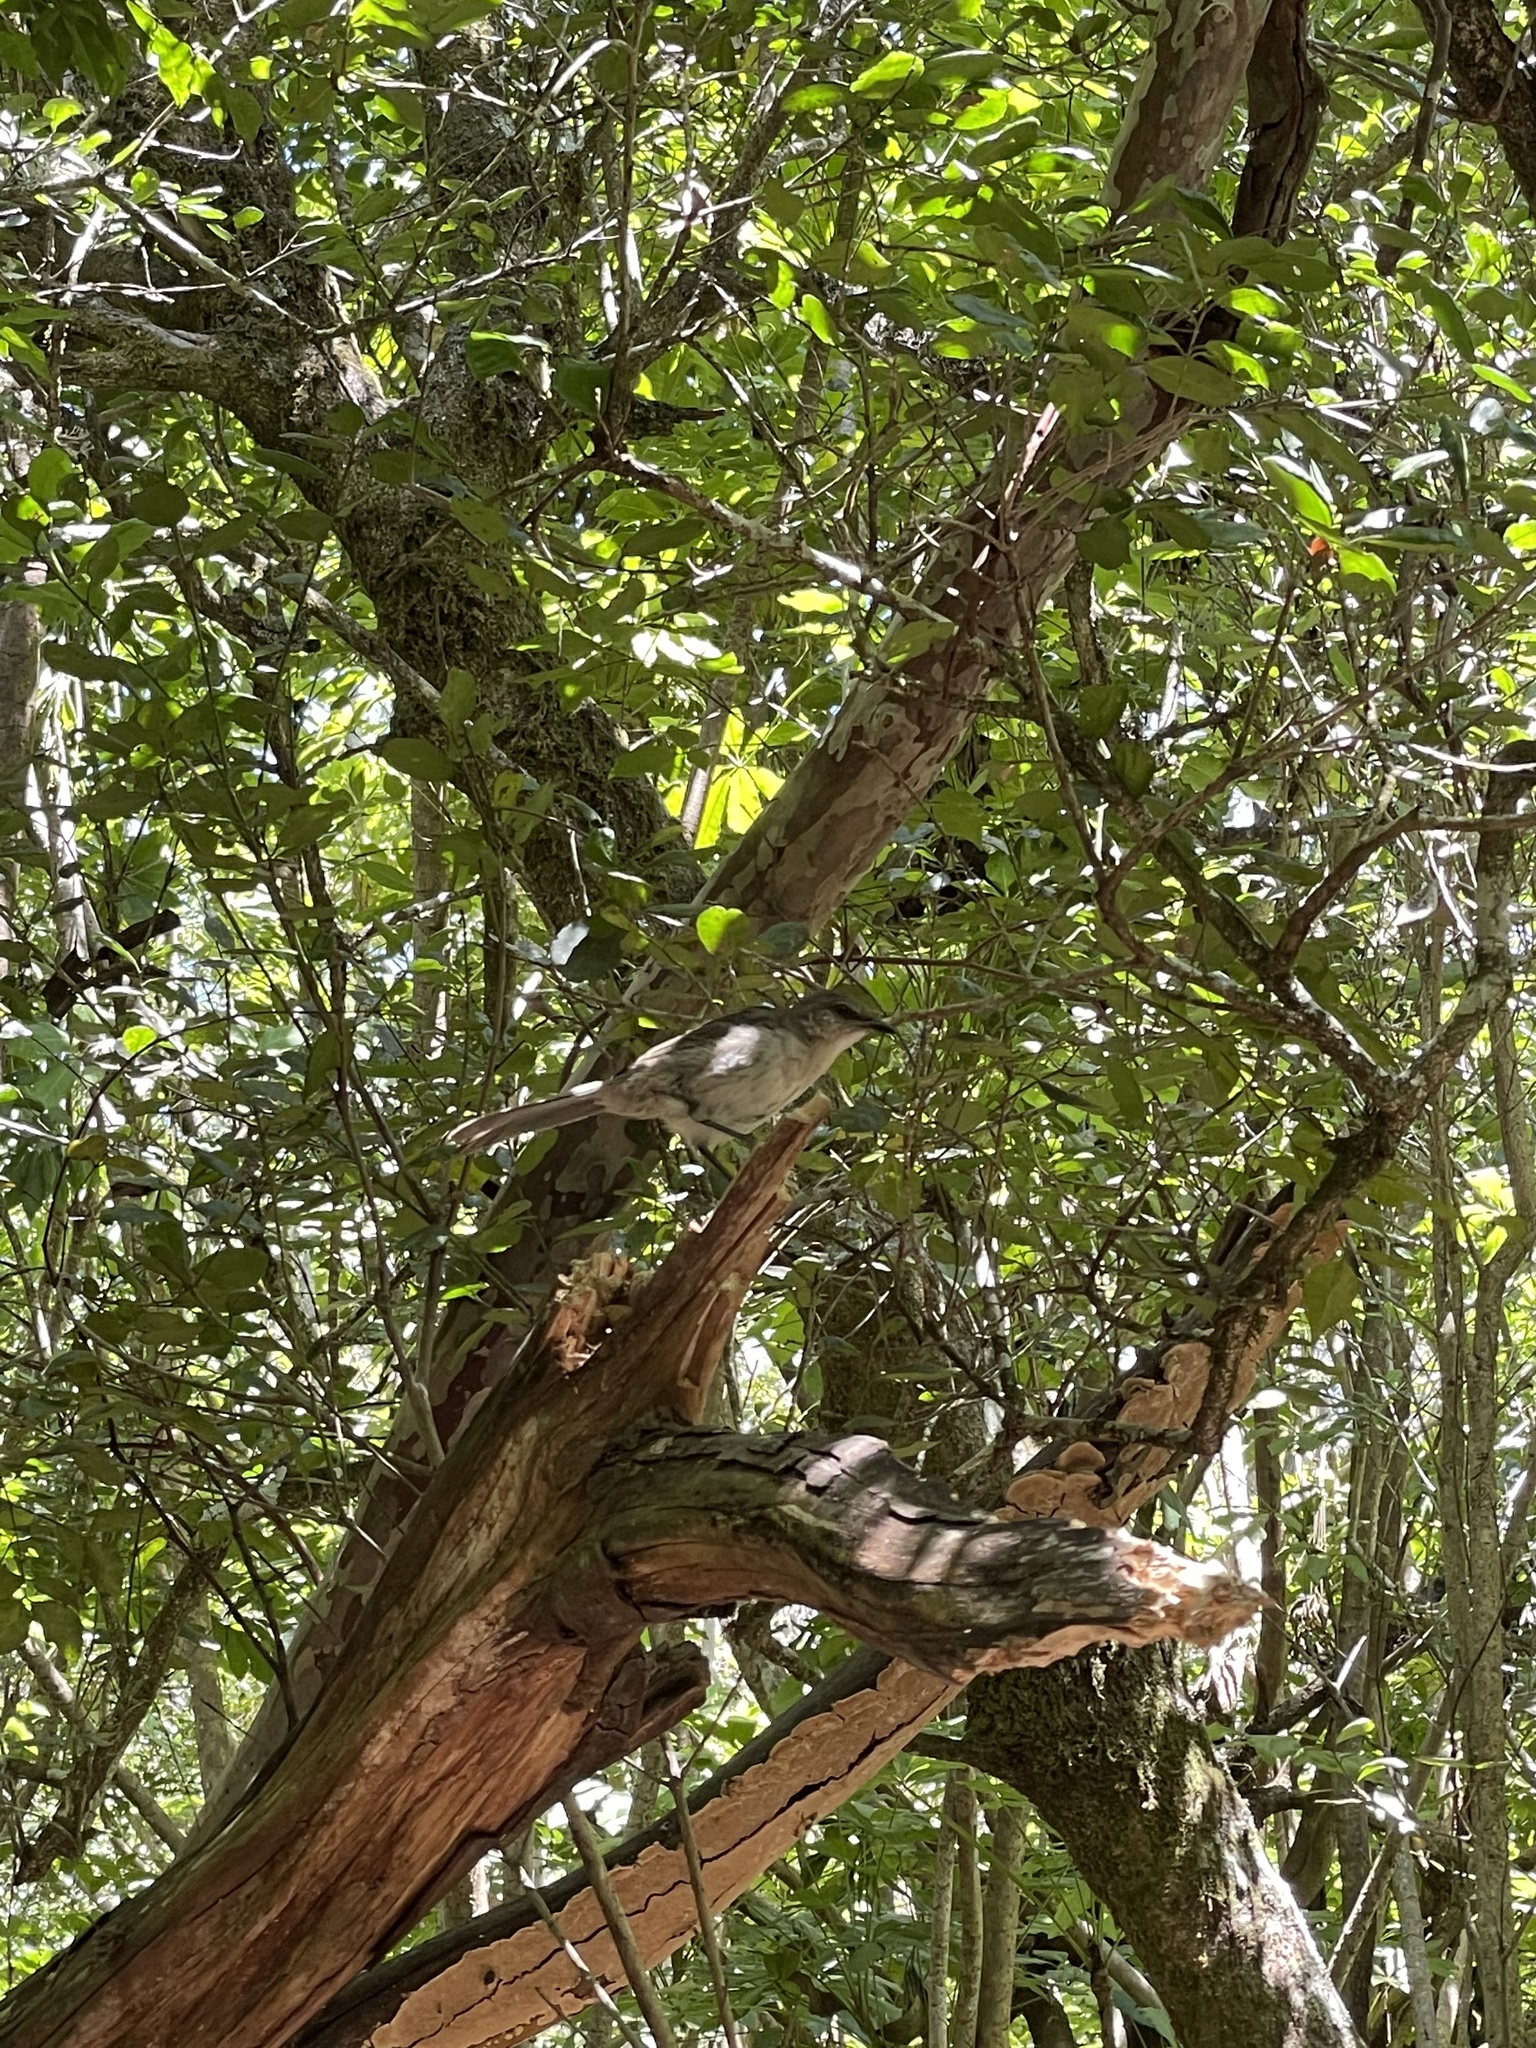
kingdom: Animalia
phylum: Chordata
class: Aves
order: Passeriformes
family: Mimidae
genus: Mimus
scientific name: Mimus graysoni
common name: Socorro mockingbird
